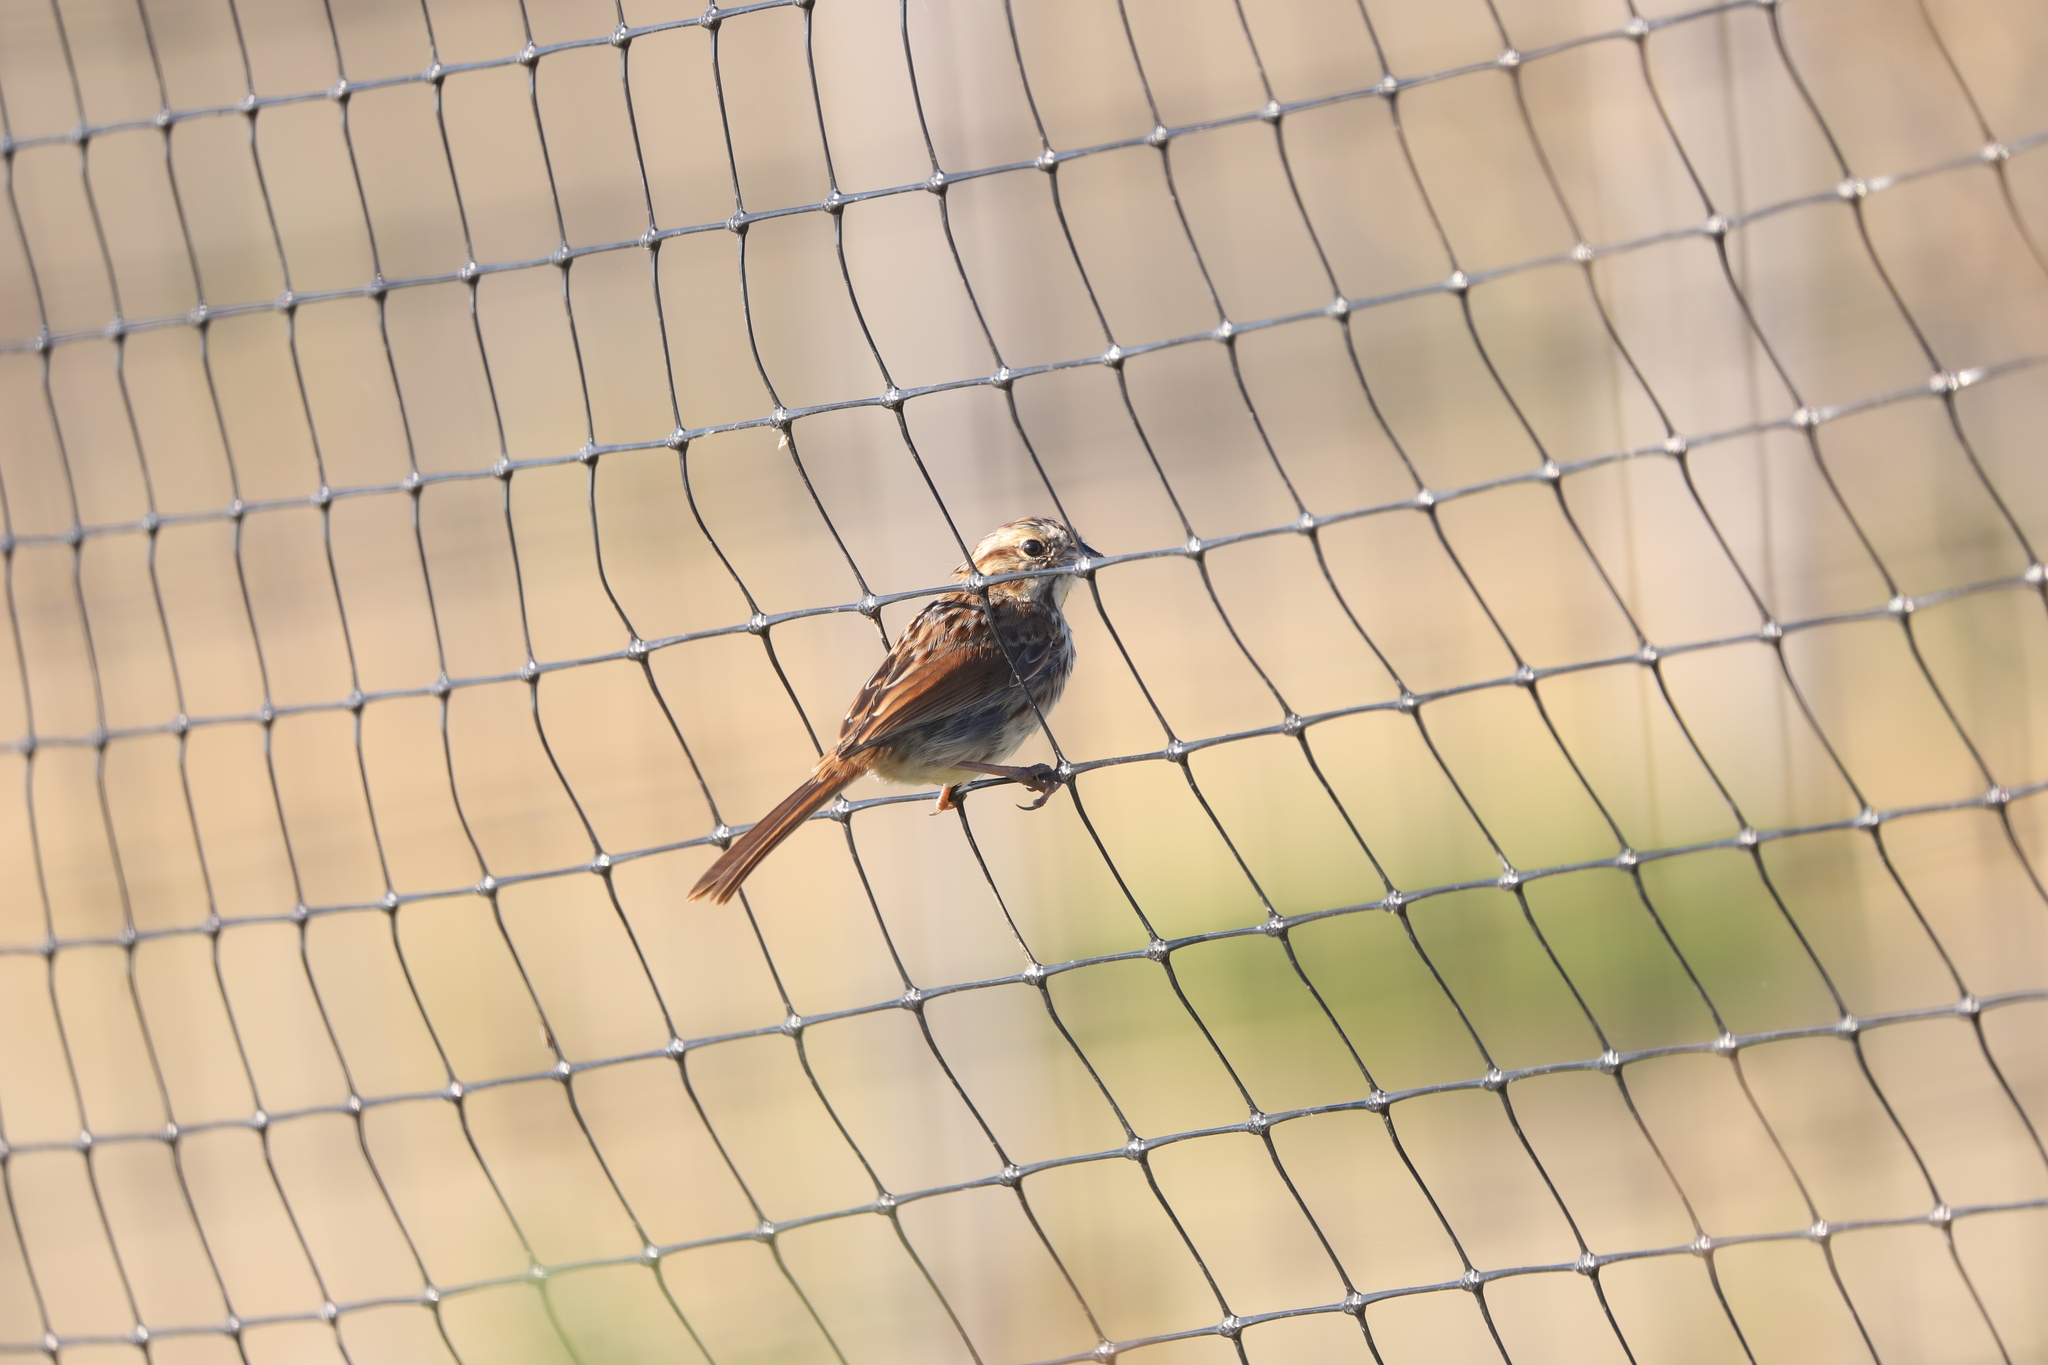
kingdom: Animalia
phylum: Chordata
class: Aves
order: Passeriformes
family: Passerellidae
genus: Melospiza
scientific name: Melospiza melodia
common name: Song sparrow
